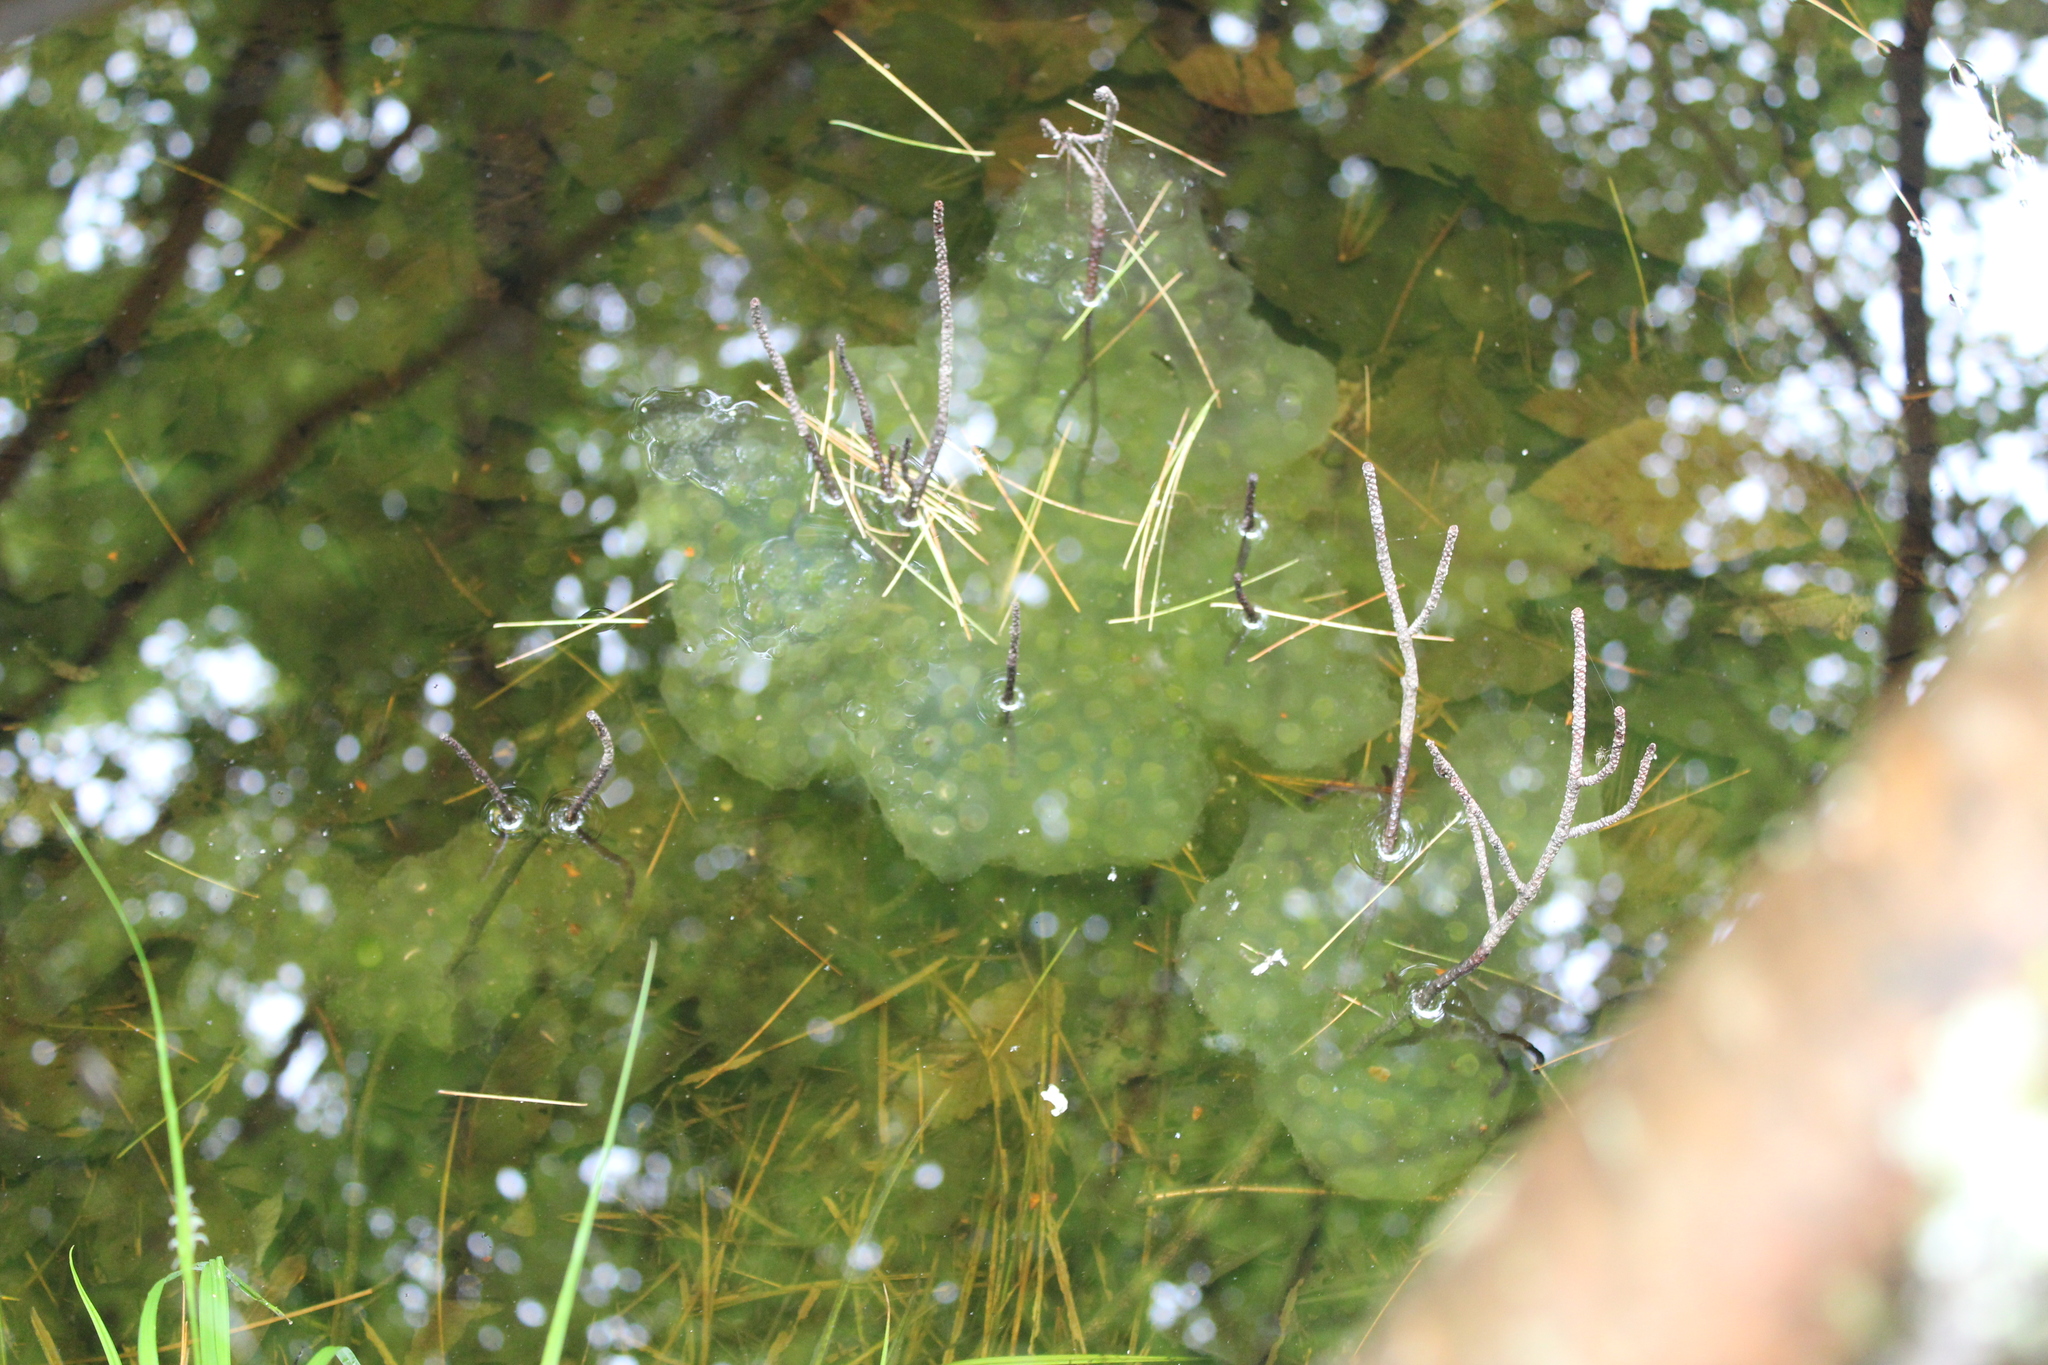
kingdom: Animalia
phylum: Chordata
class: Amphibia
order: Caudata
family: Ambystomatidae
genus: Ambystoma
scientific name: Ambystoma maculatum
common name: Spotted salamander
